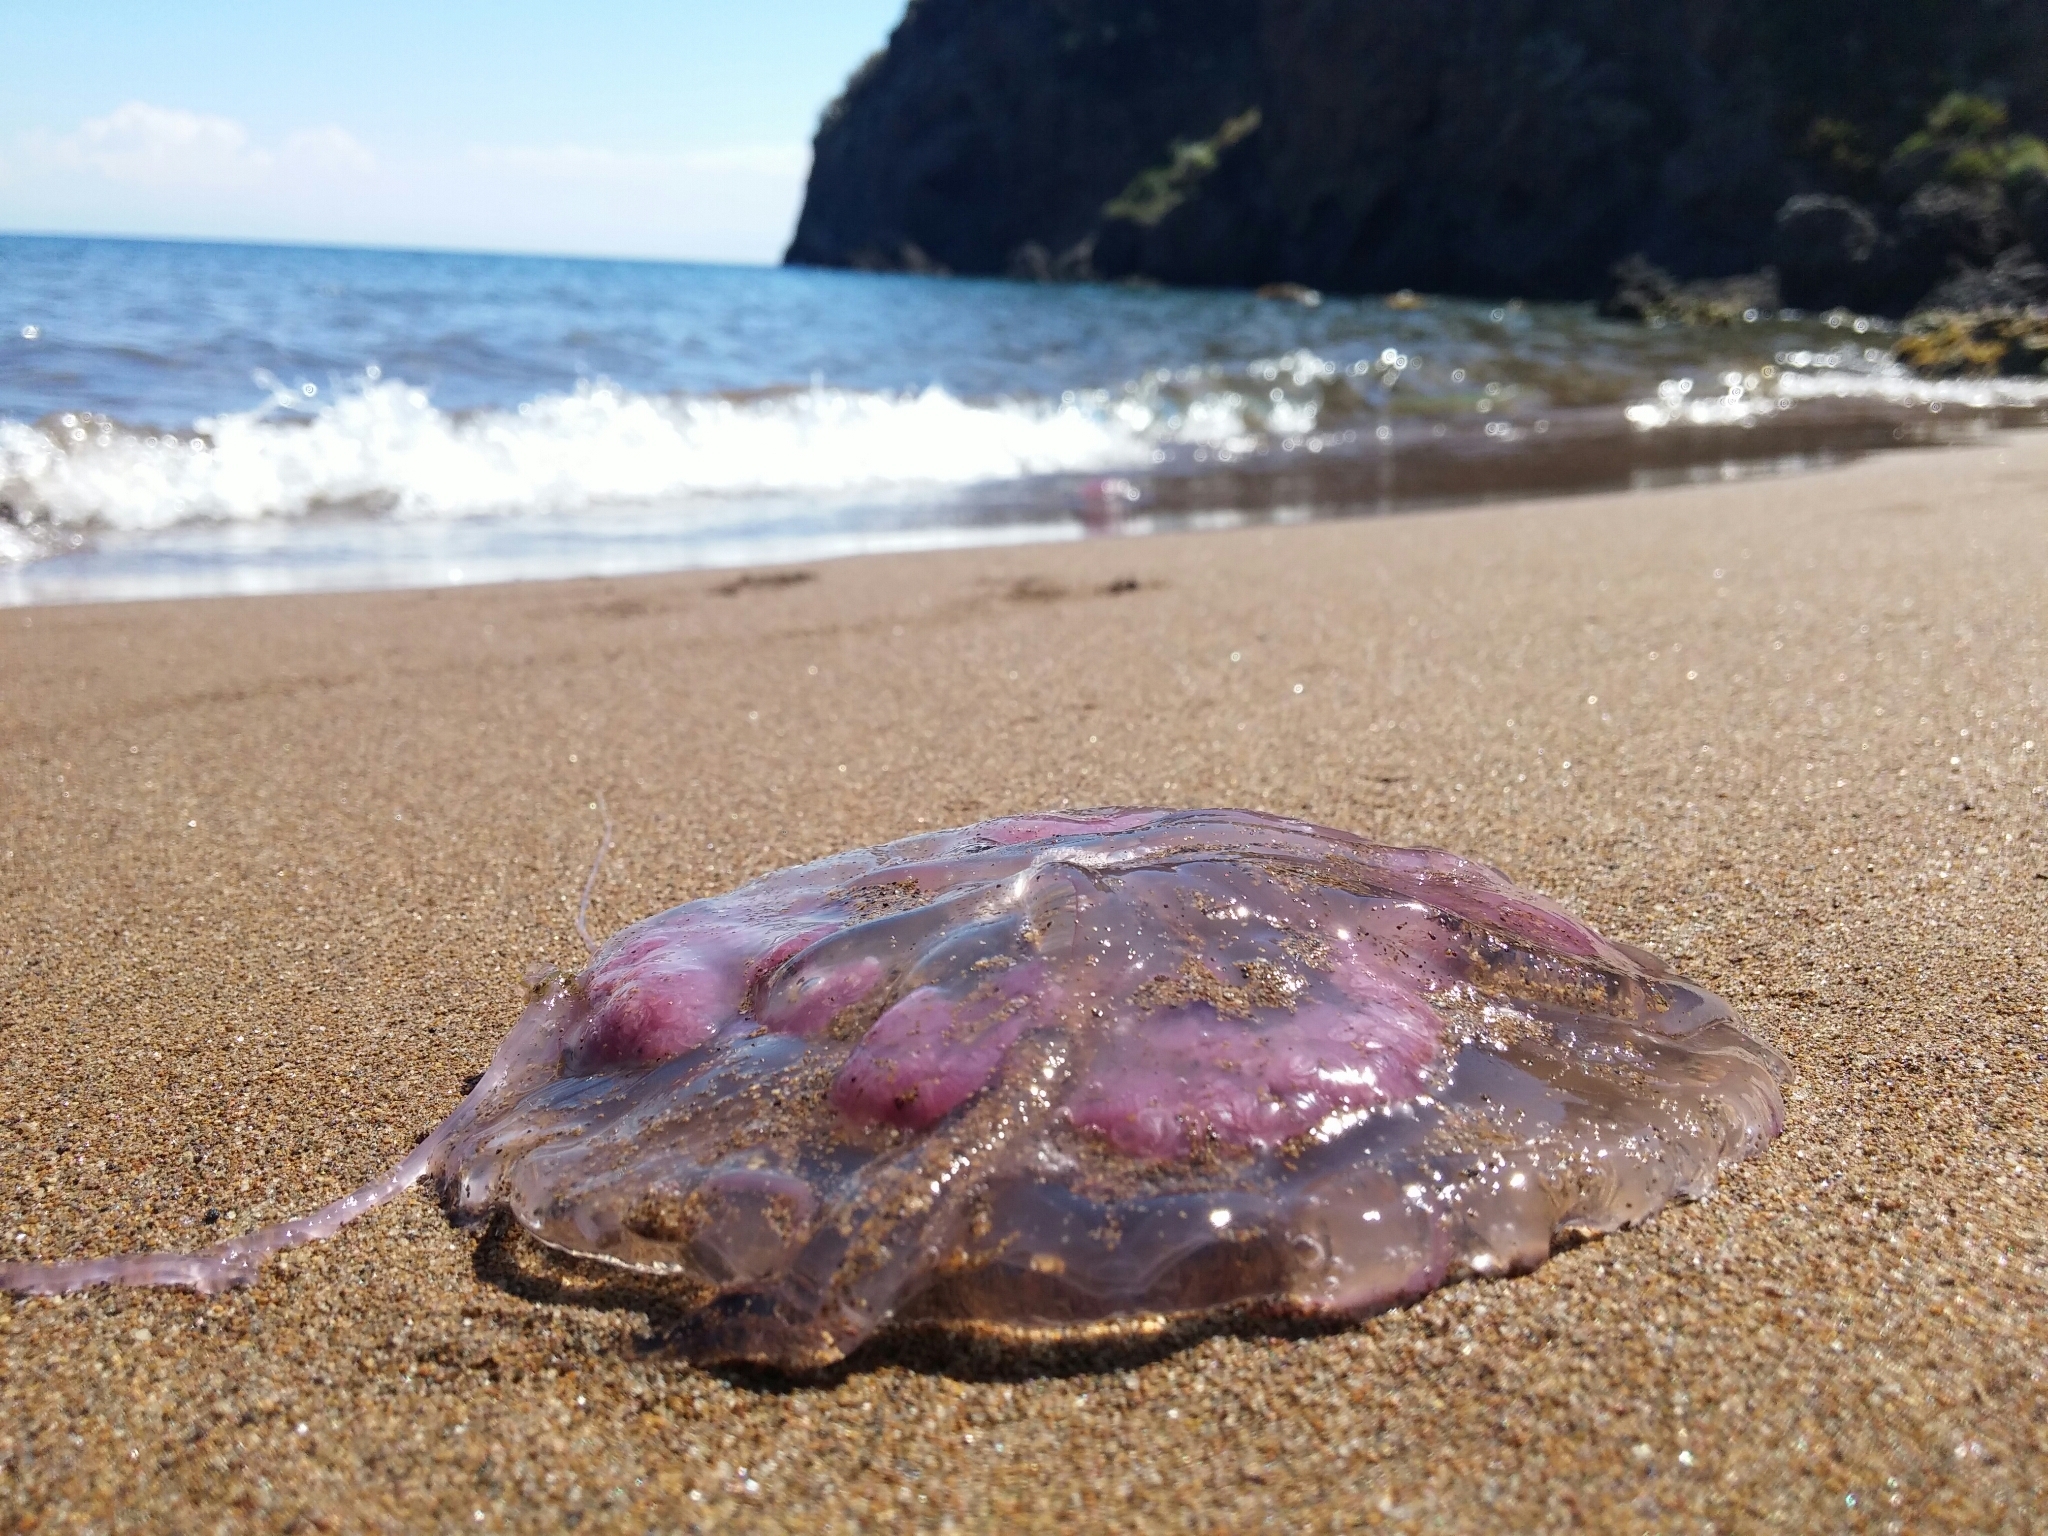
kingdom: Animalia
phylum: Cnidaria
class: Scyphozoa
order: Semaeostomeae
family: Pelagiidae
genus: Pelagia
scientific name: Pelagia noctiluca
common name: Mauve stinger
